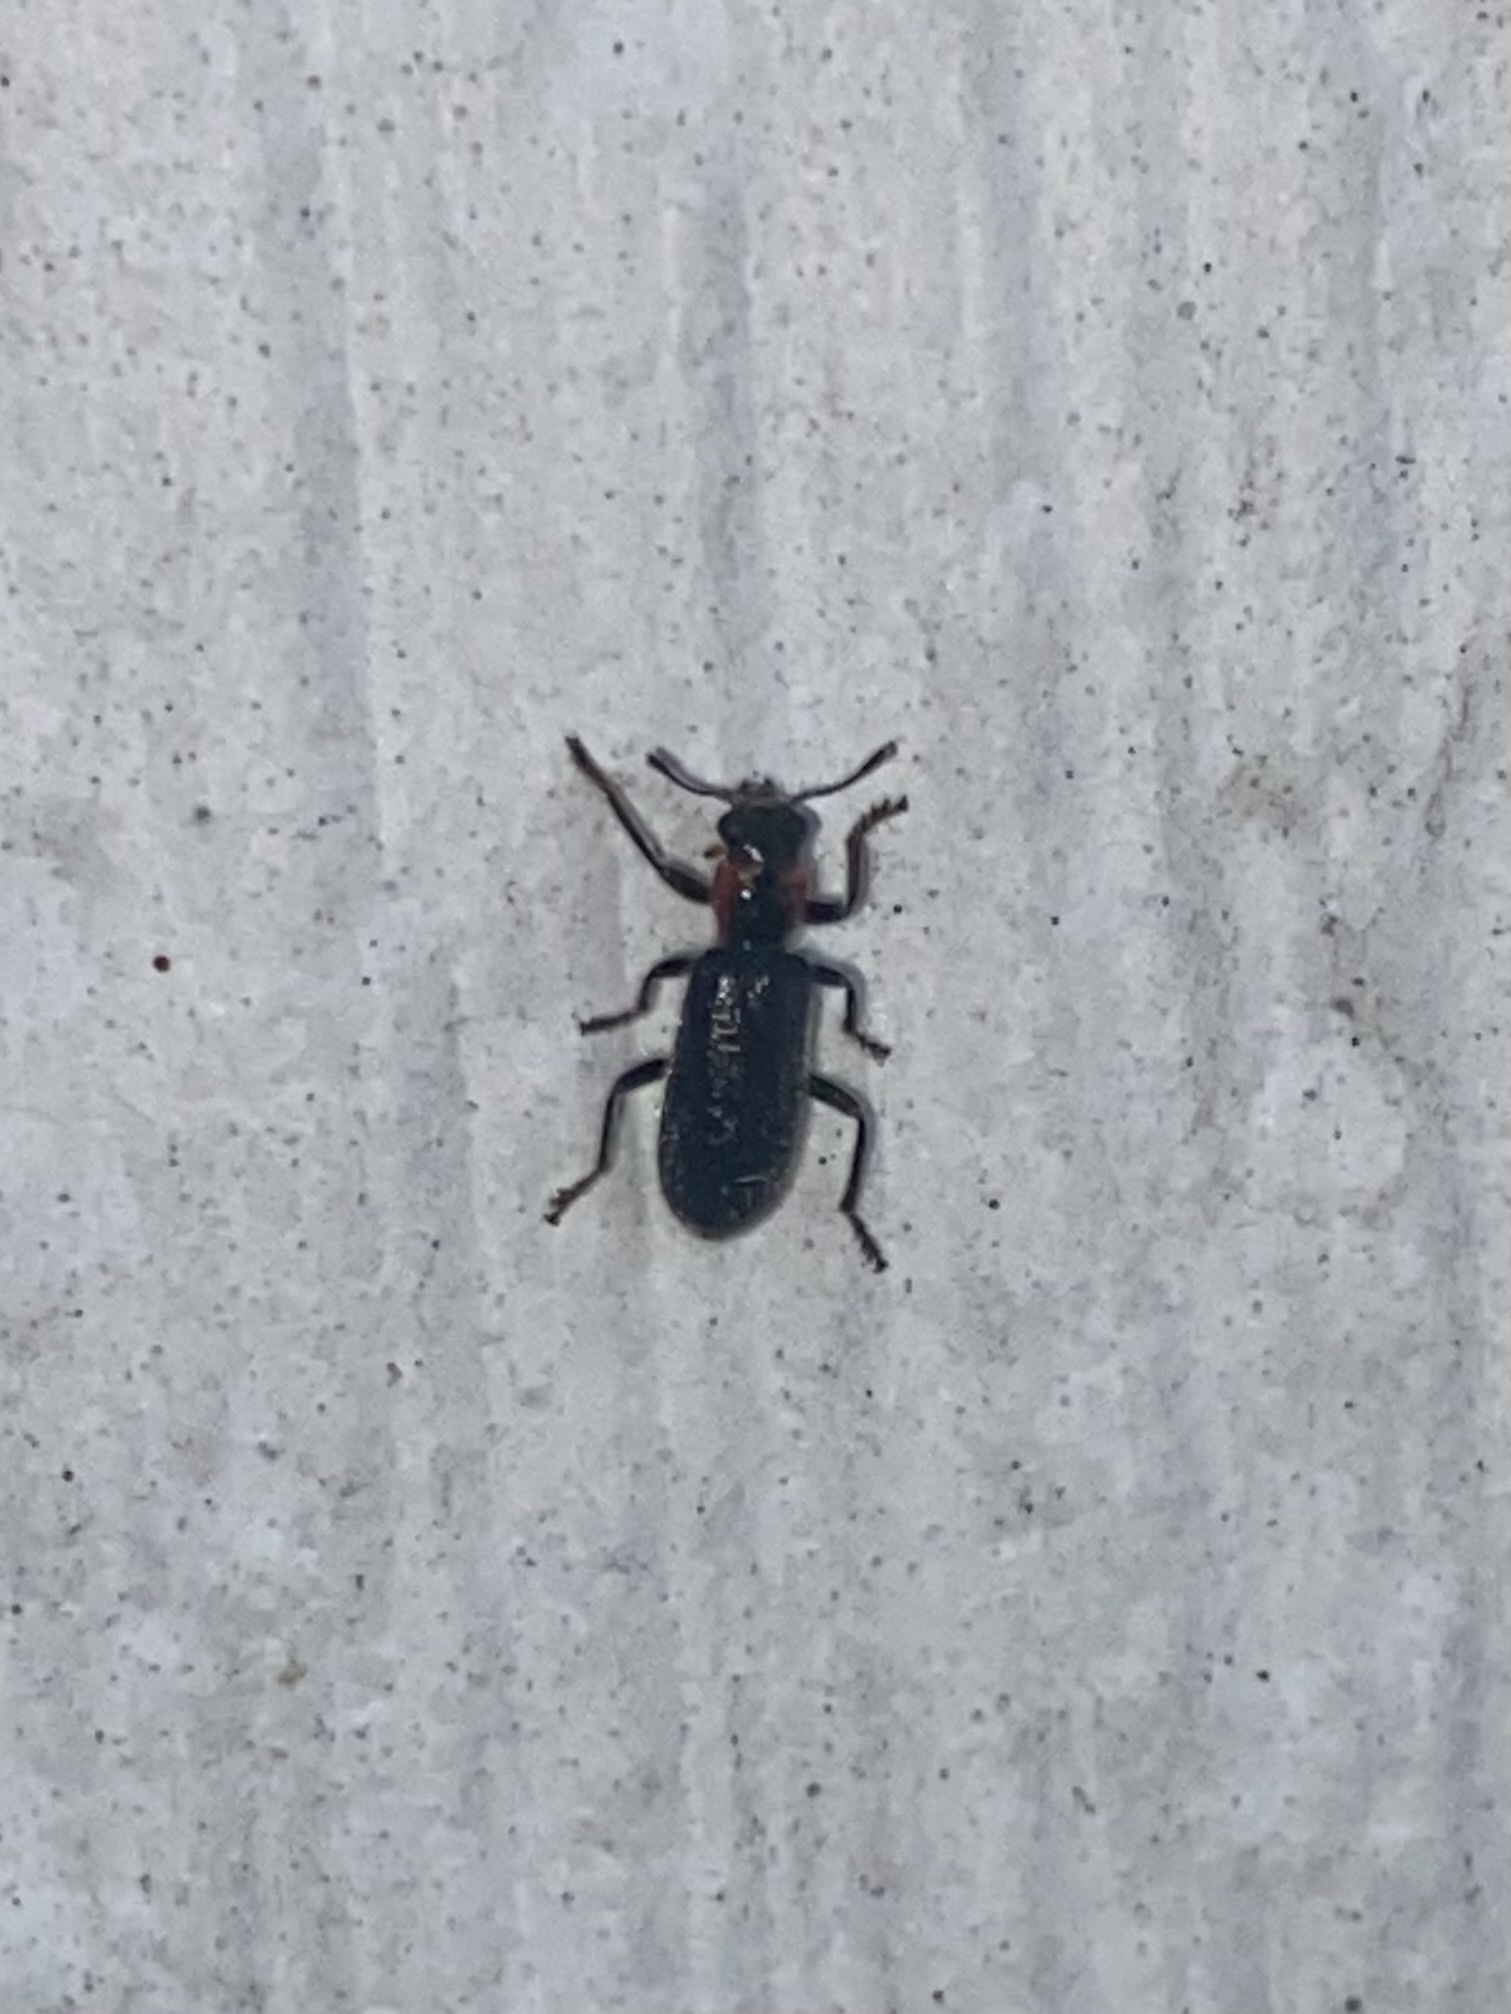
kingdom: Animalia
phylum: Arthropoda
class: Insecta
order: Coleoptera
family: Cleridae
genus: Placopterus
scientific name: Placopterus thoracicus
